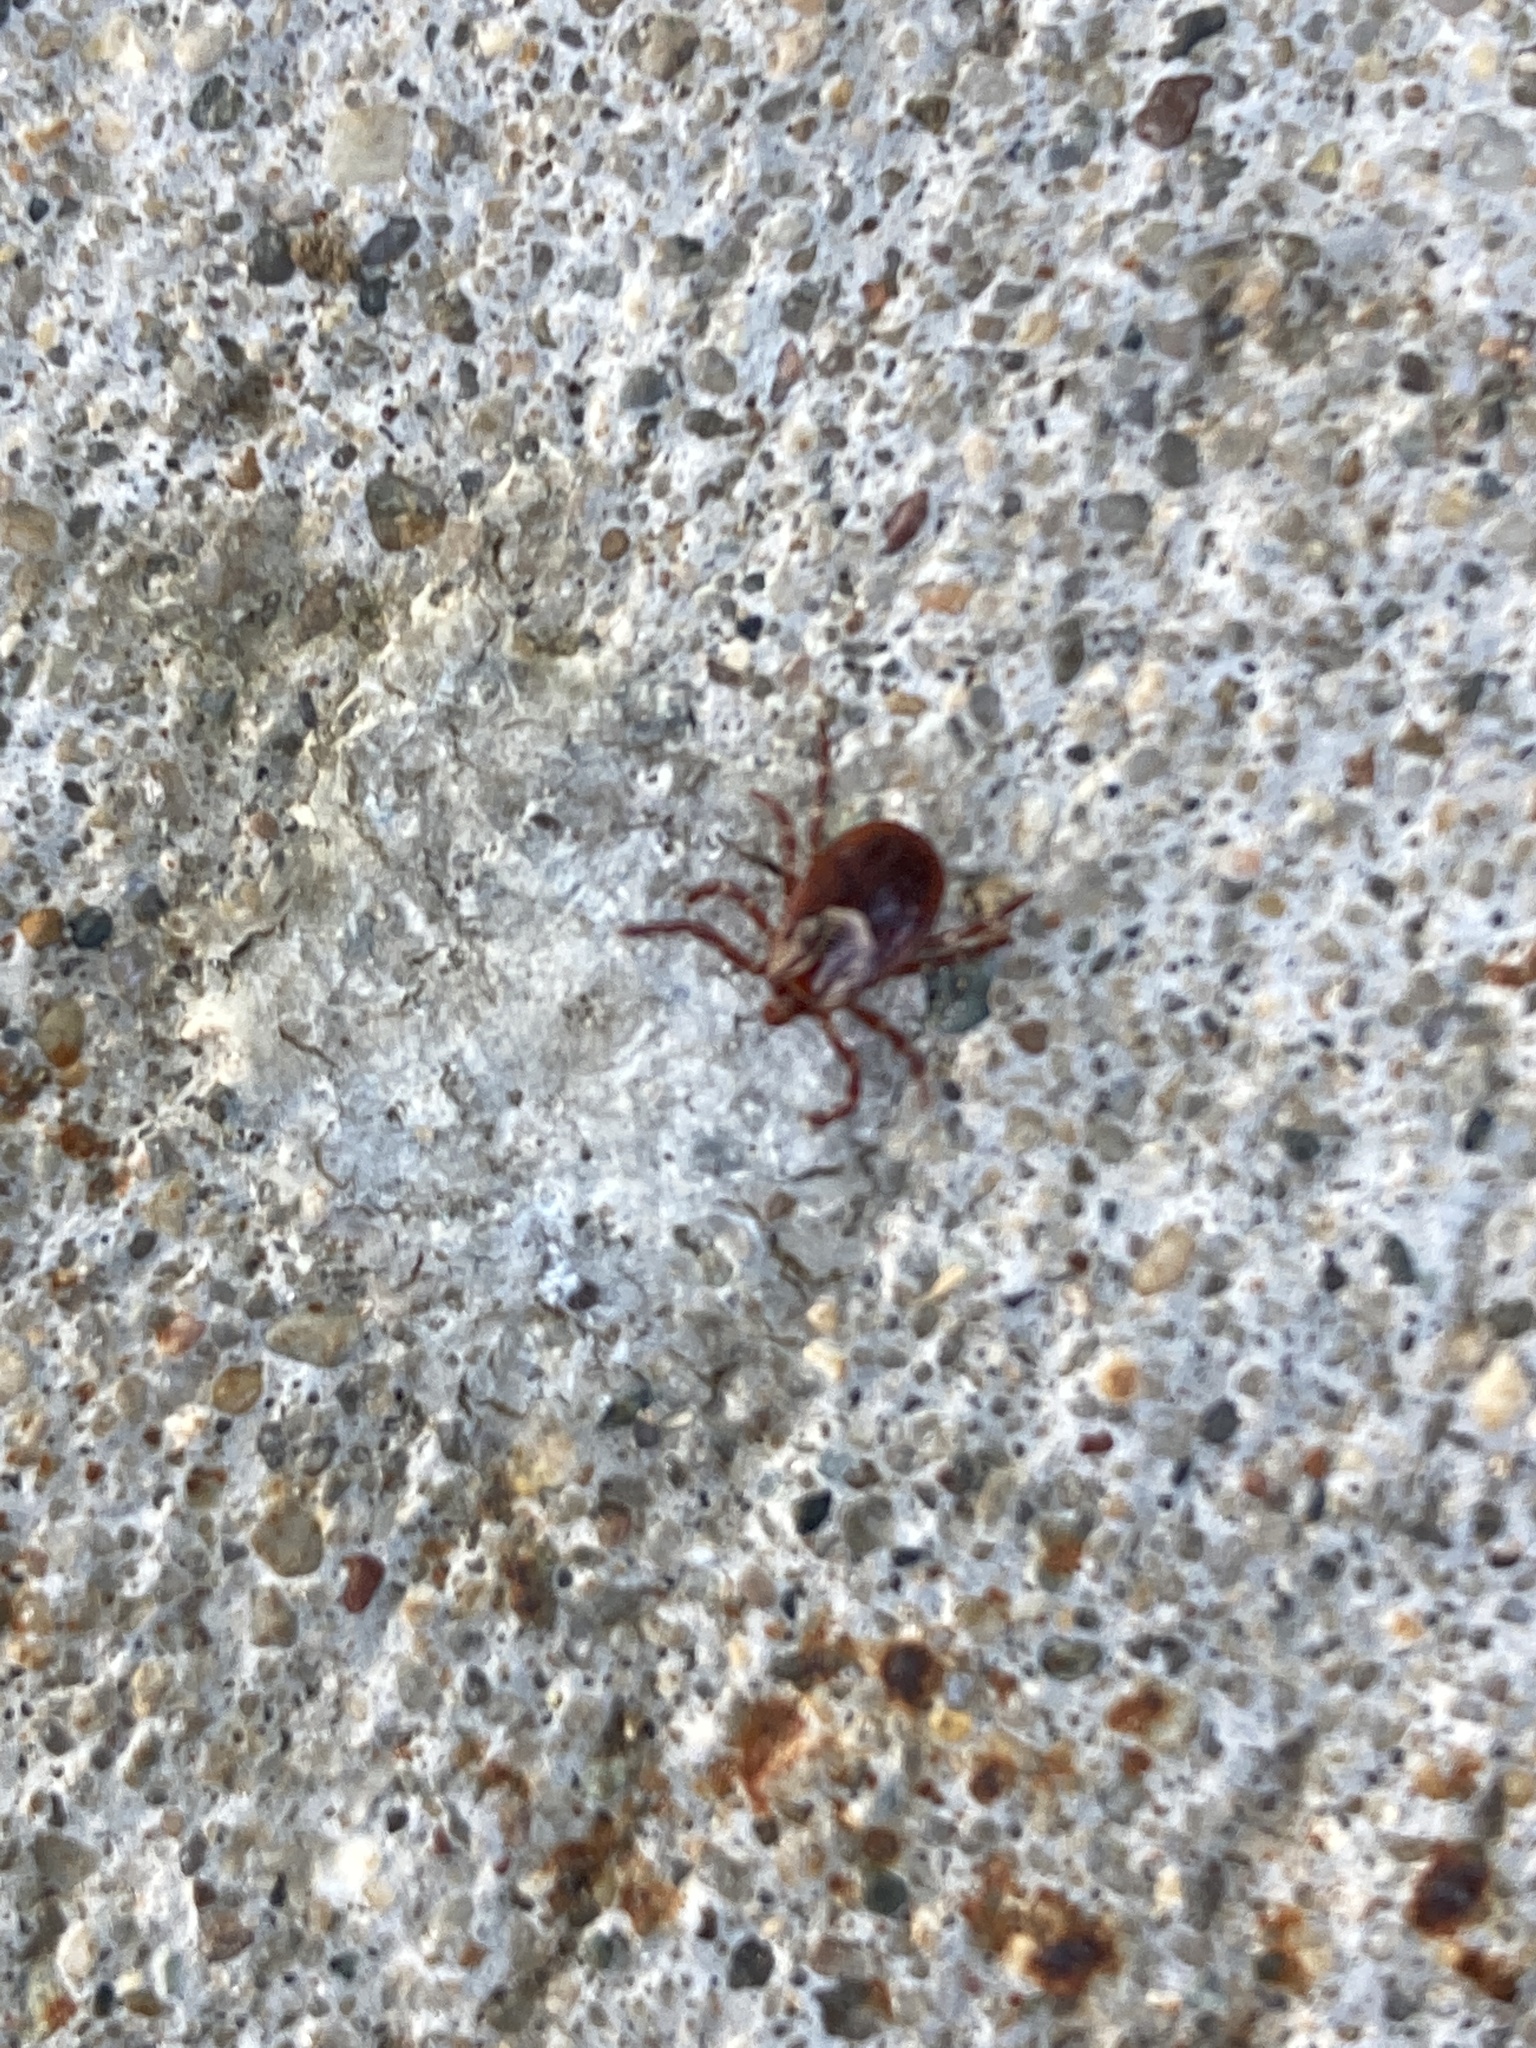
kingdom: Animalia
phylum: Arthropoda
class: Arachnida
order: Ixodida
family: Ixodidae
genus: Dermacentor
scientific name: Dermacentor variabilis
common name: American dog tick
